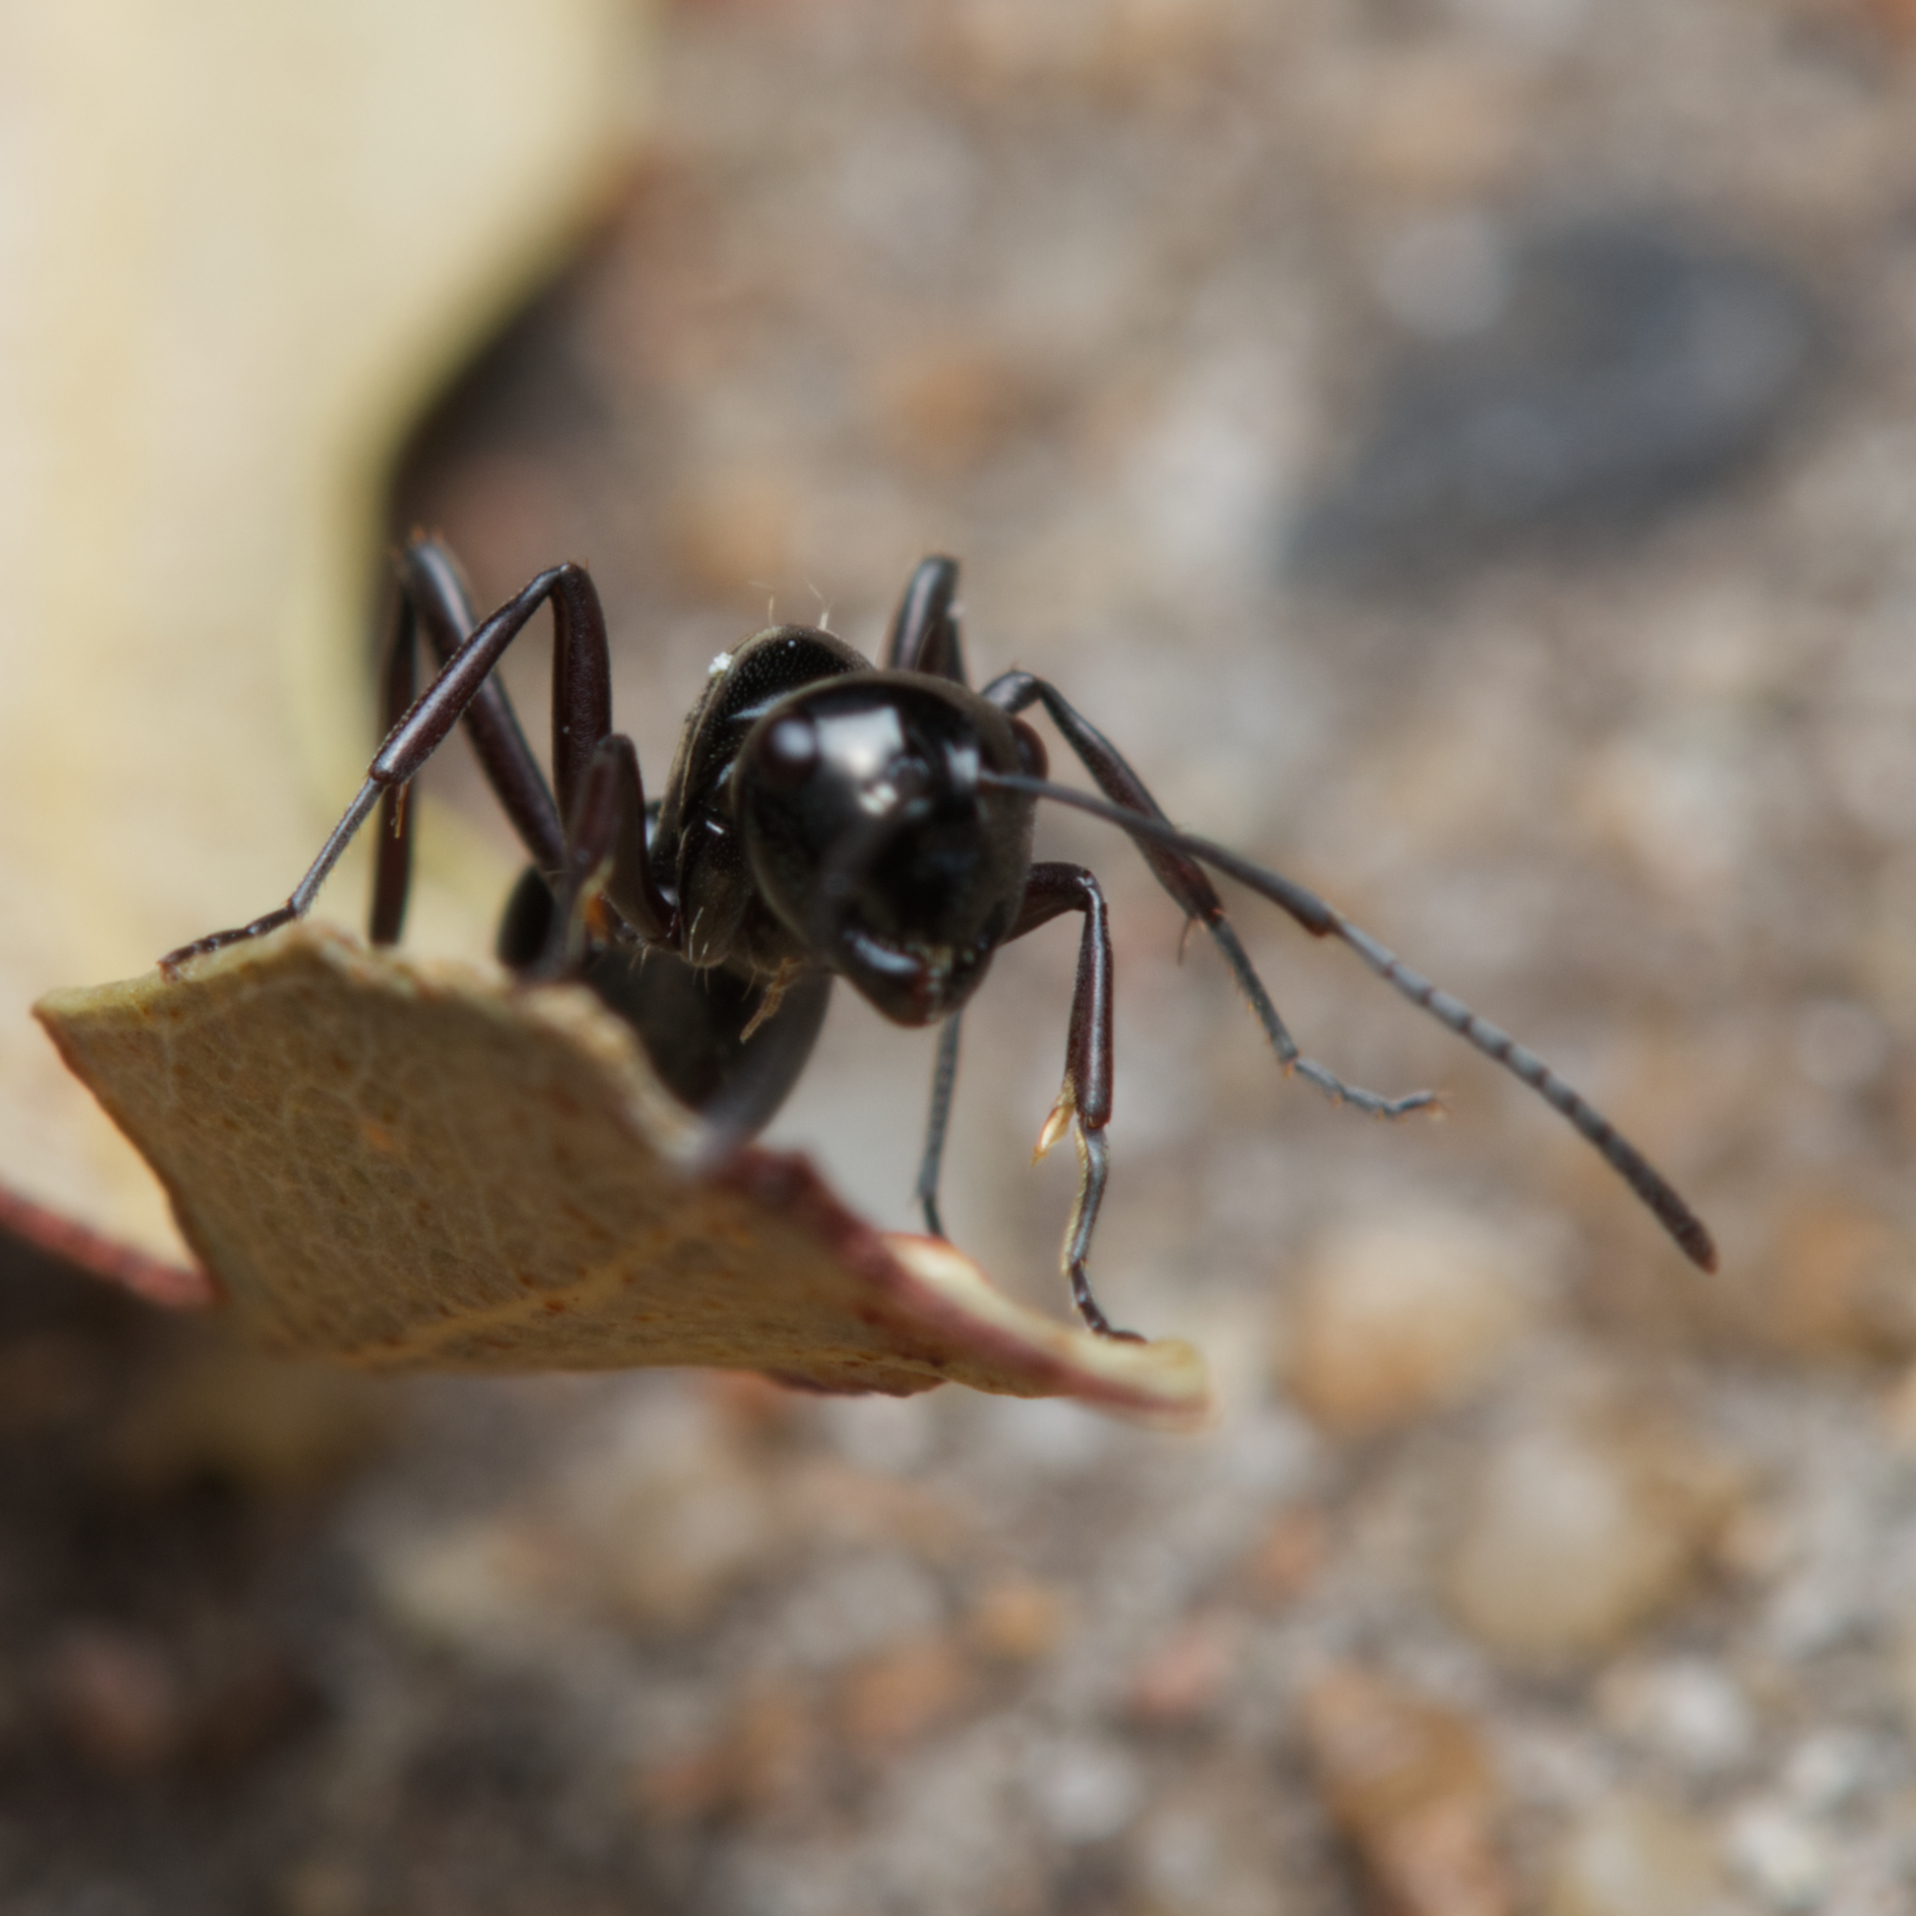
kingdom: Animalia
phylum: Arthropoda
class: Insecta
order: Hymenoptera
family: Formicidae
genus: Polyrhachis
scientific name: Polyrhachis mackayi
